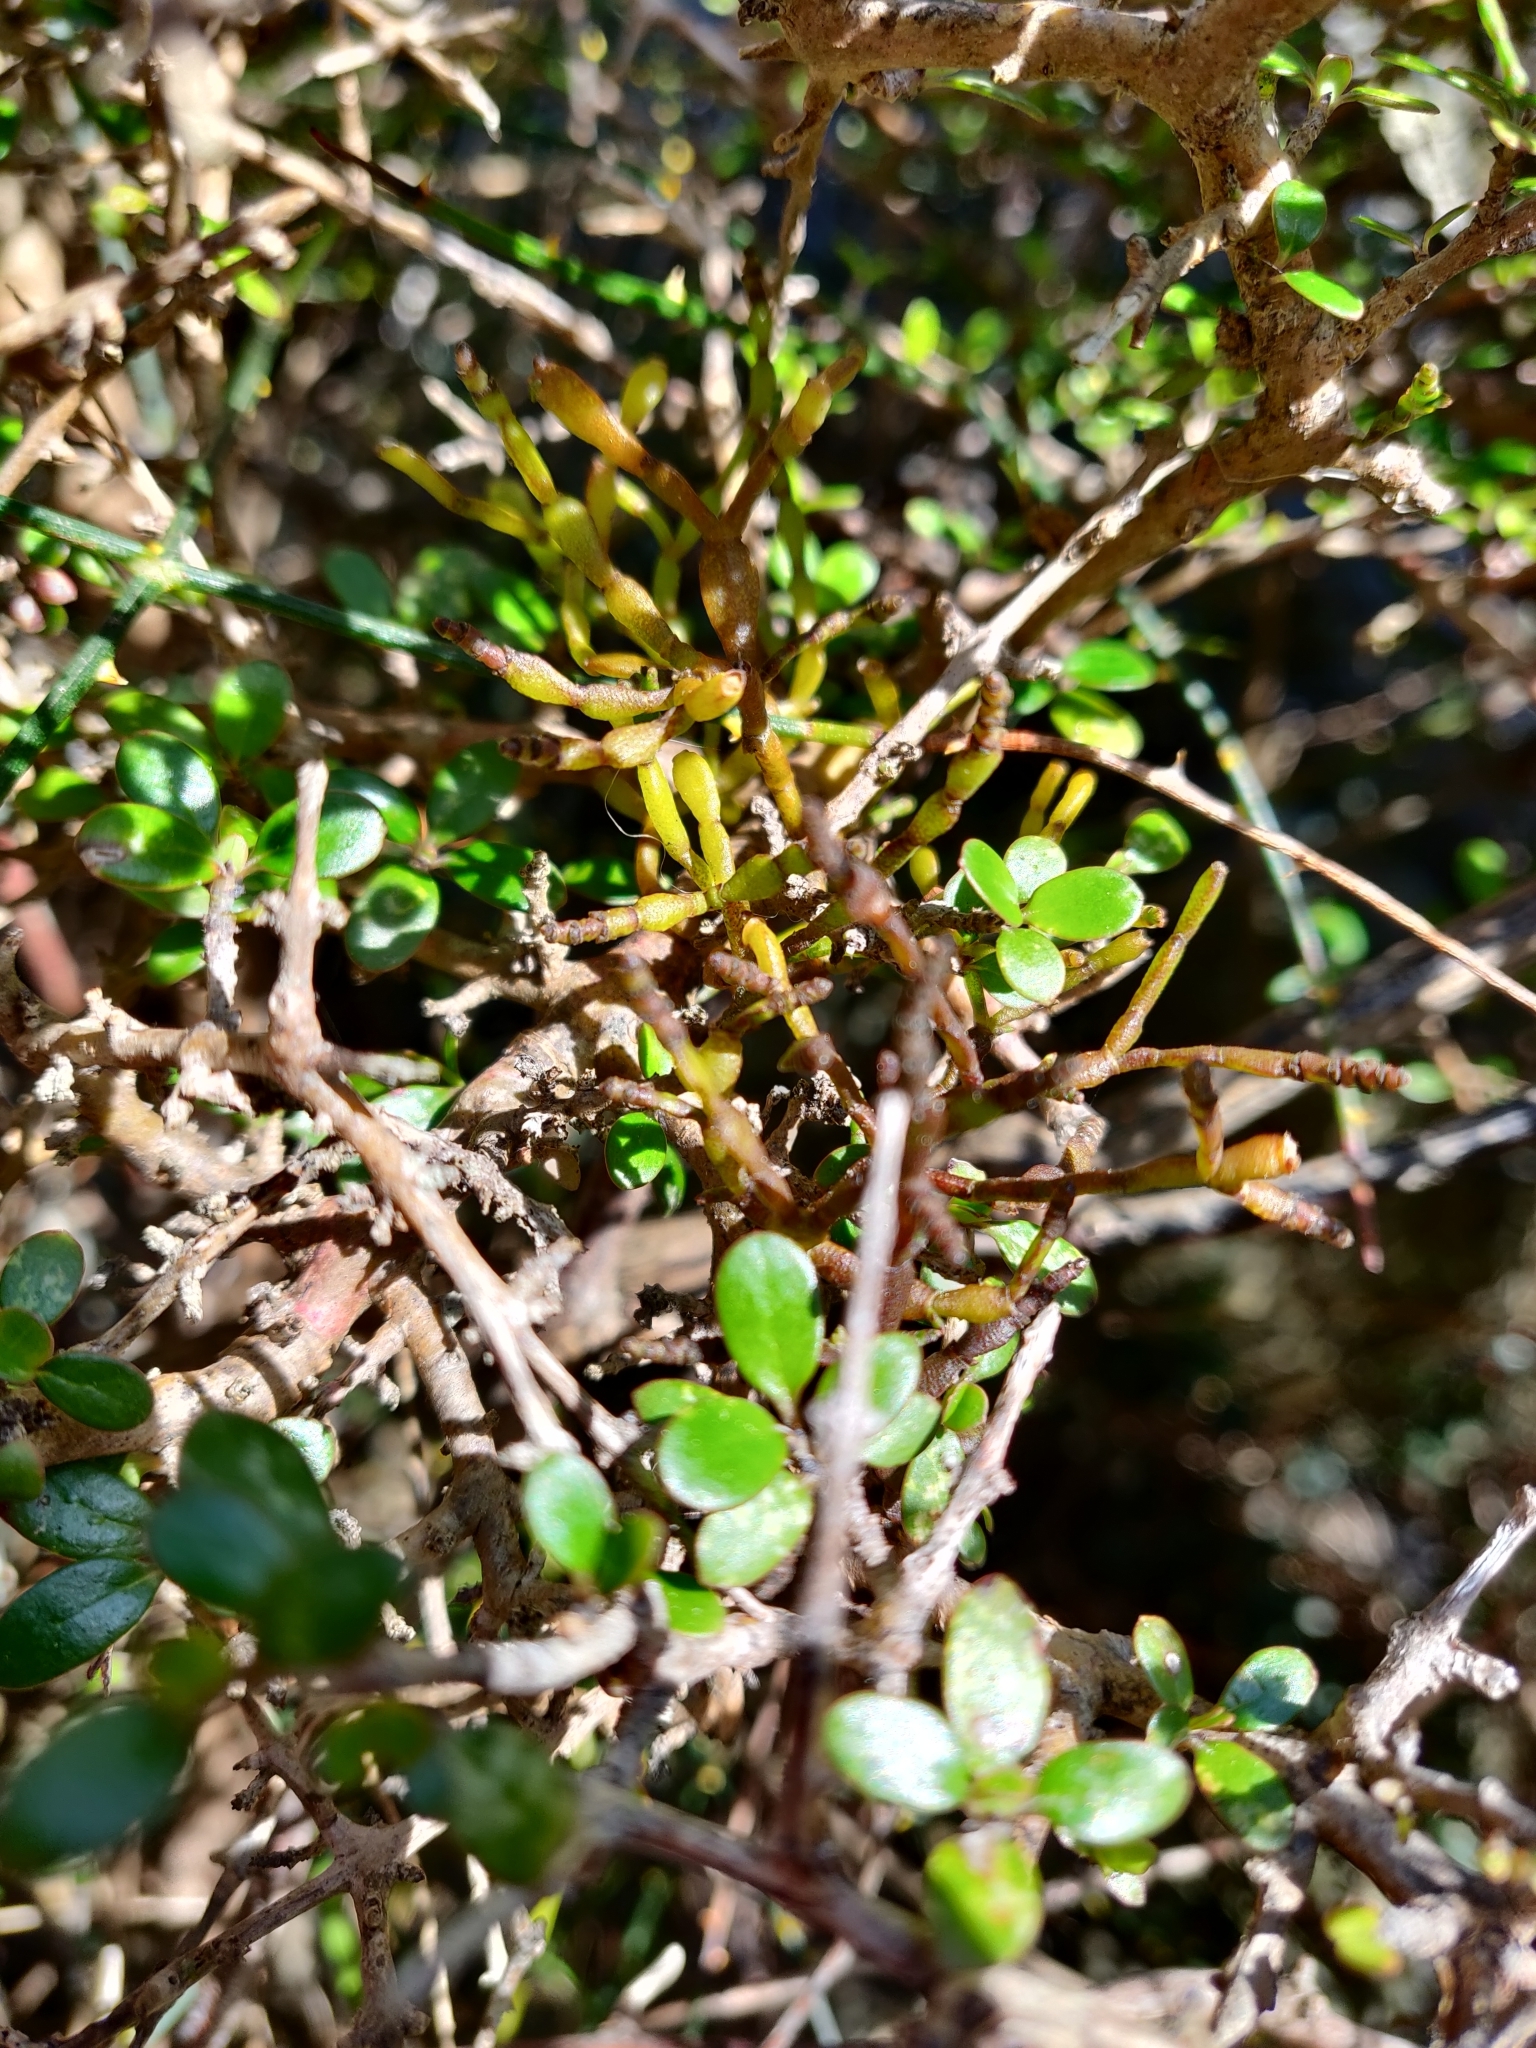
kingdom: Plantae
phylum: Tracheophyta
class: Magnoliopsida
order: Santalales
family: Viscaceae
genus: Korthalsella
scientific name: Korthalsella clavata
